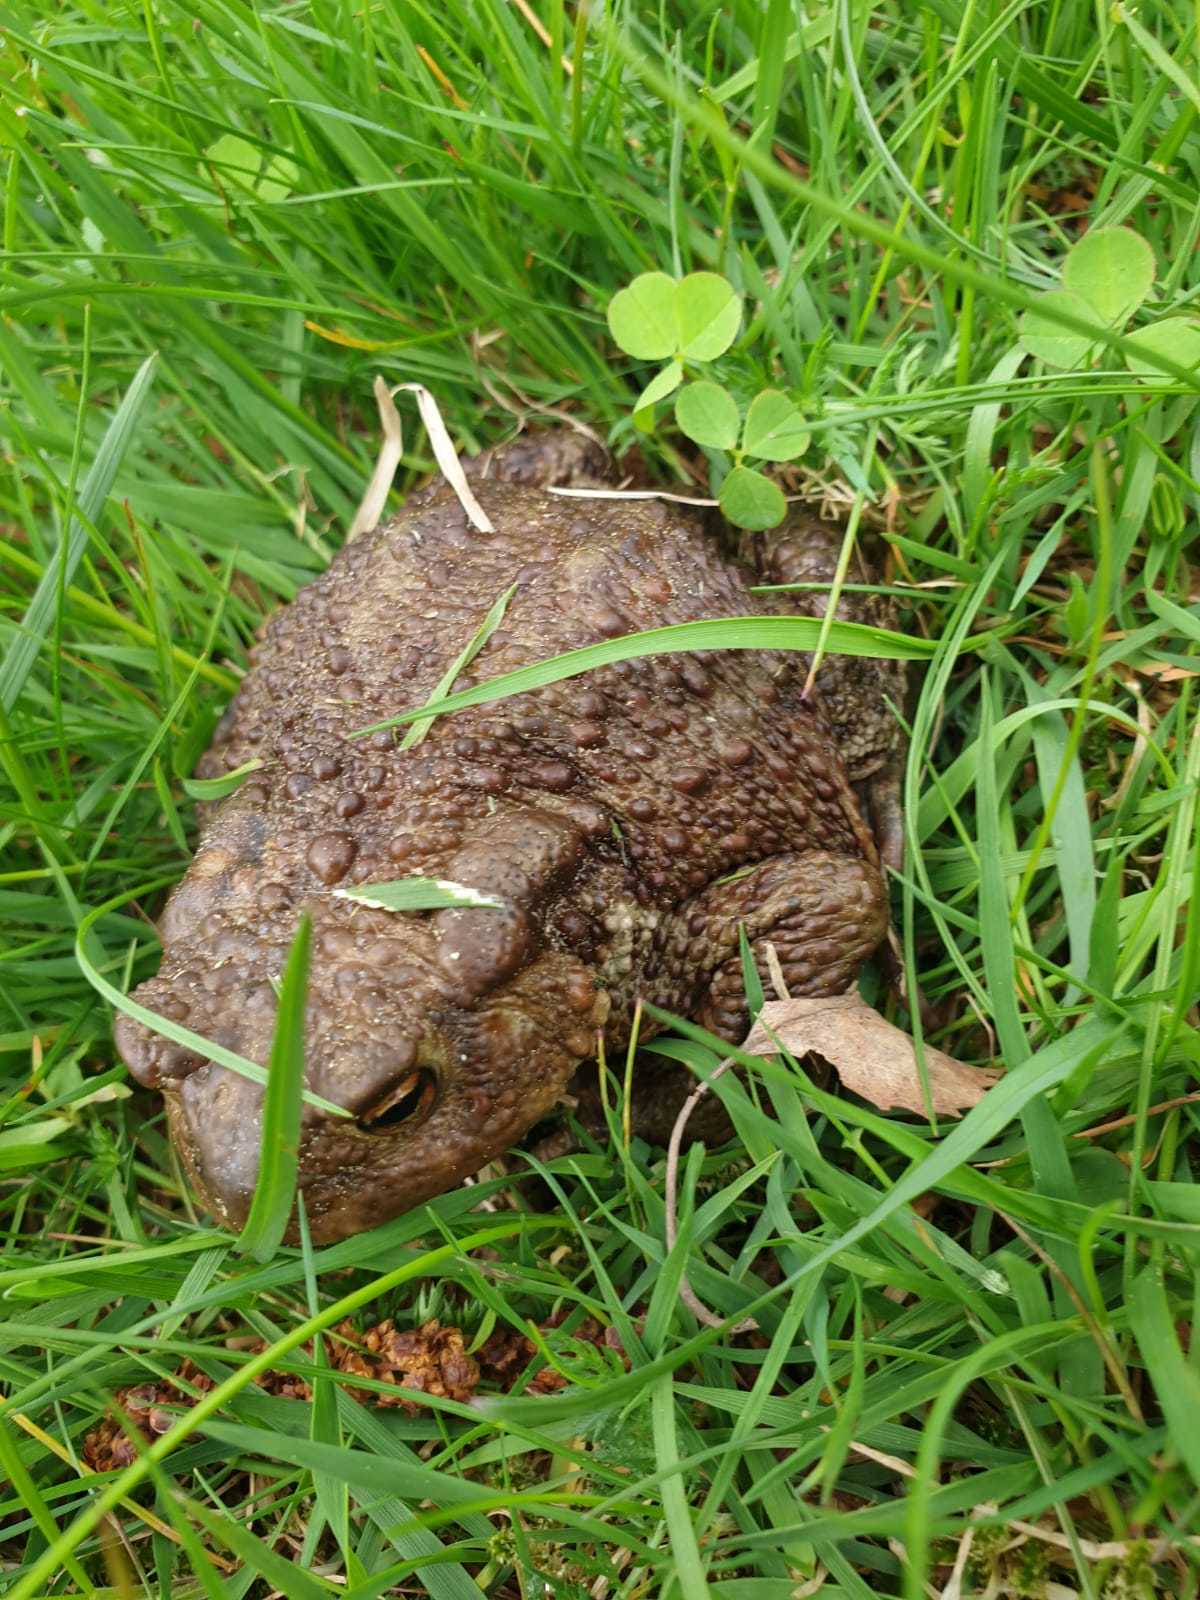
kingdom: Animalia
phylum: Chordata
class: Amphibia
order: Anura
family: Bufonidae
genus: Bufo
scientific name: Bufo bufo
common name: Common toad
